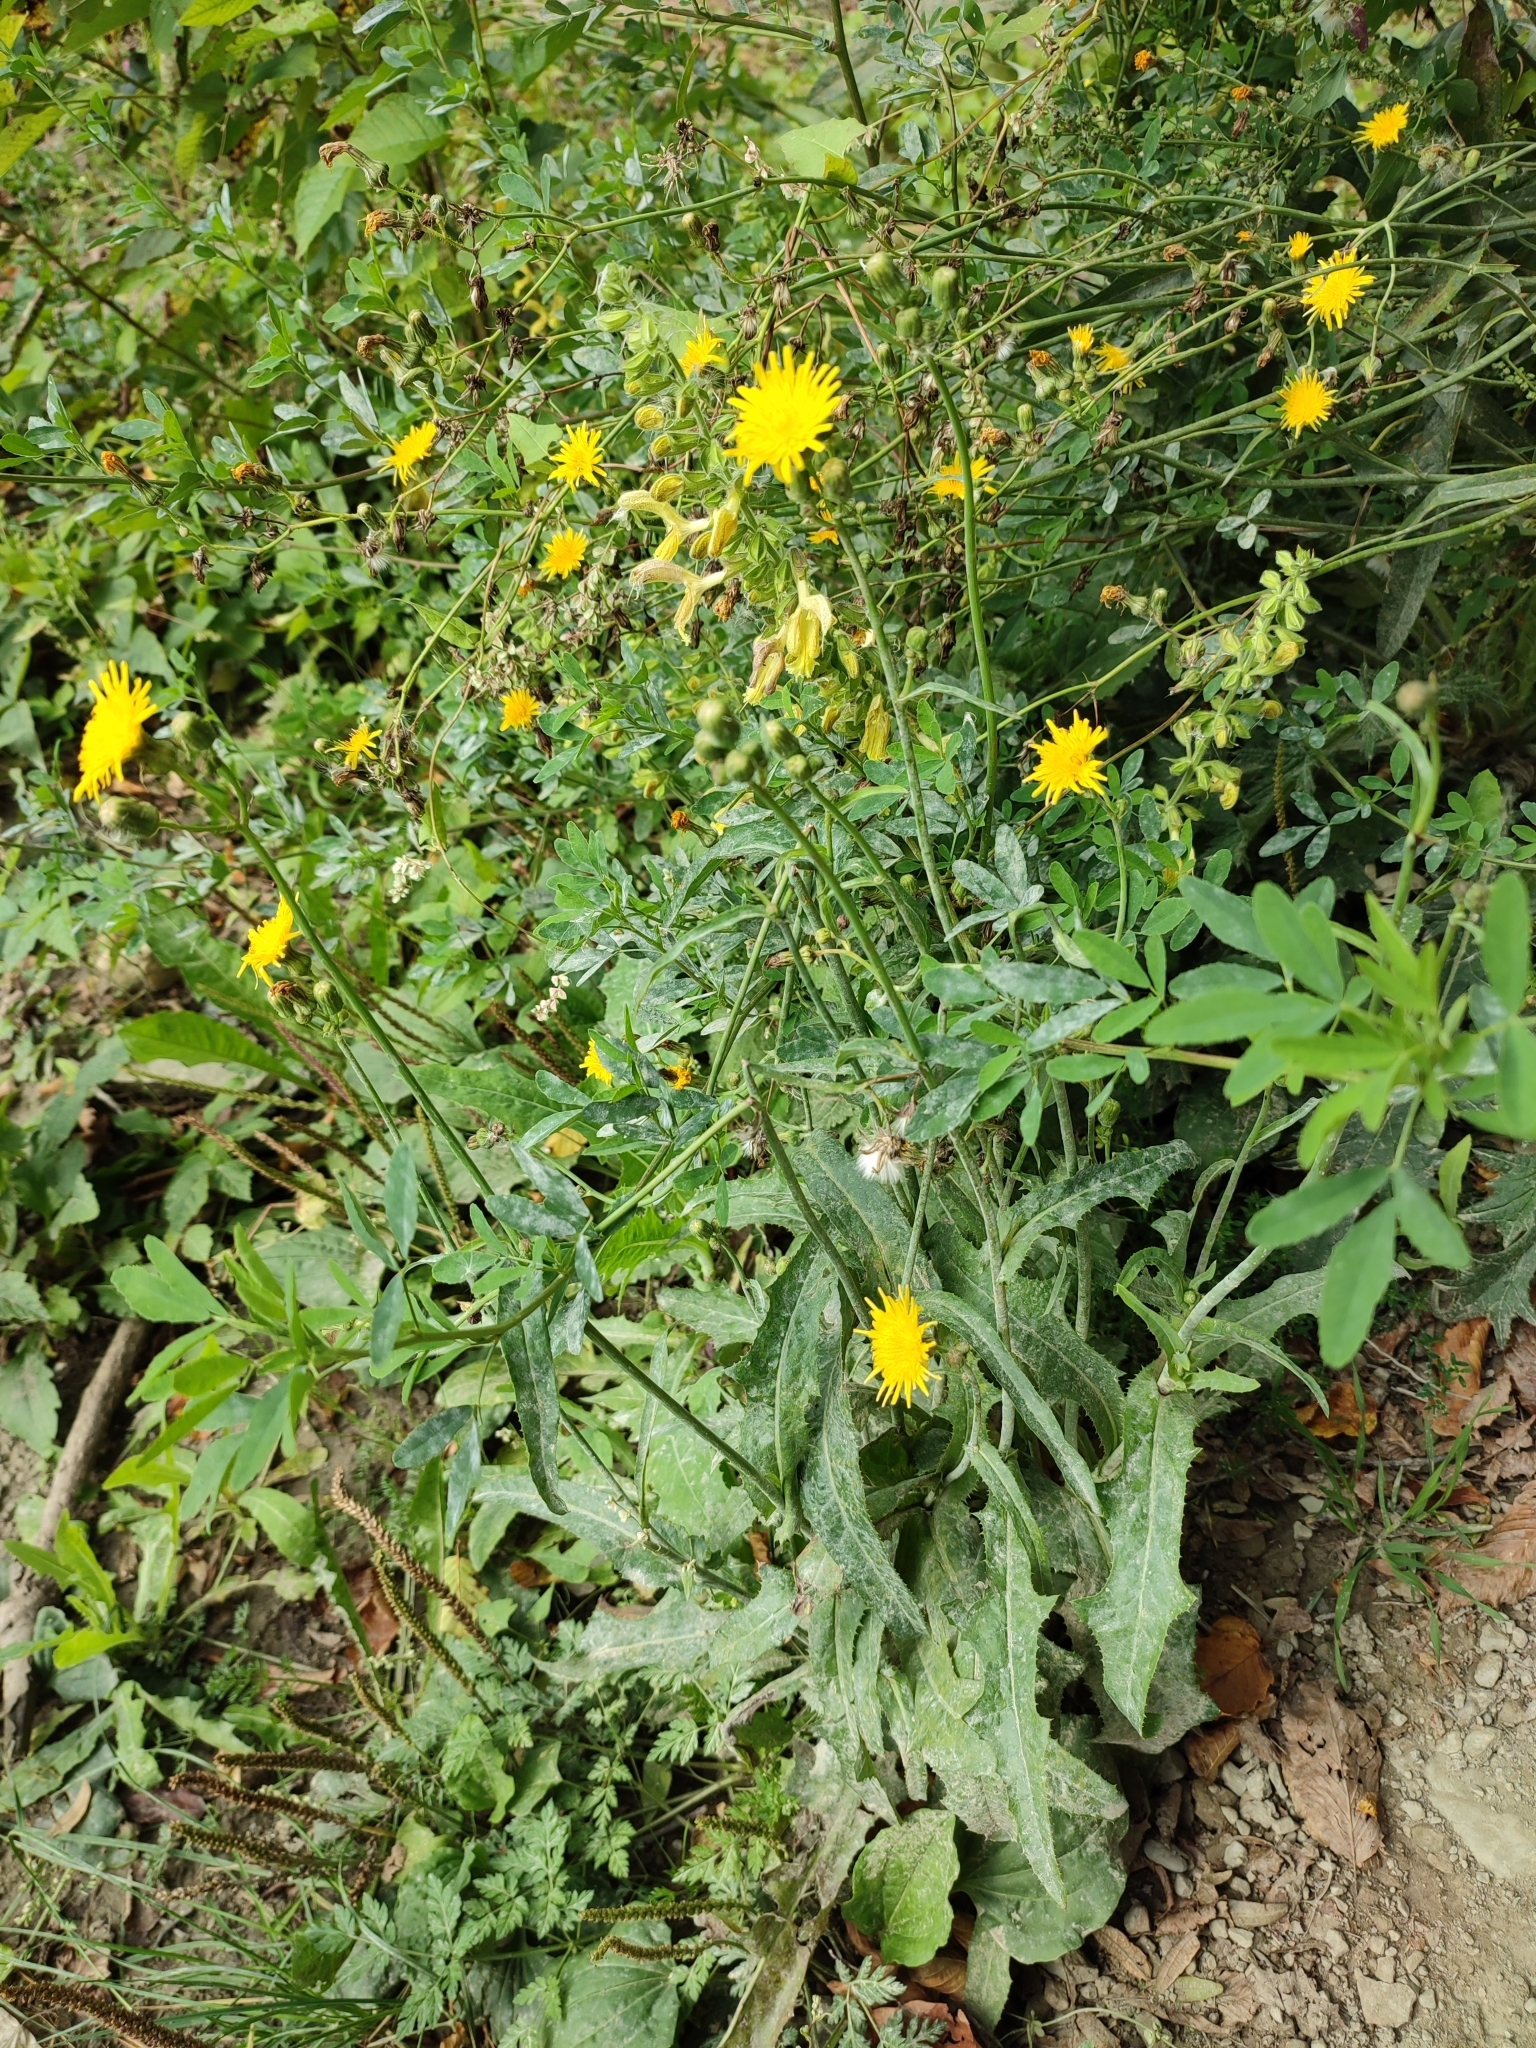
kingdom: Plantae
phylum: Tracheophyta
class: Magnoliopsida
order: Asterales
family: Asteraceae
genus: Sonchus
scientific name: Sonchus arvensis
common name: Perennial sow-thistle
